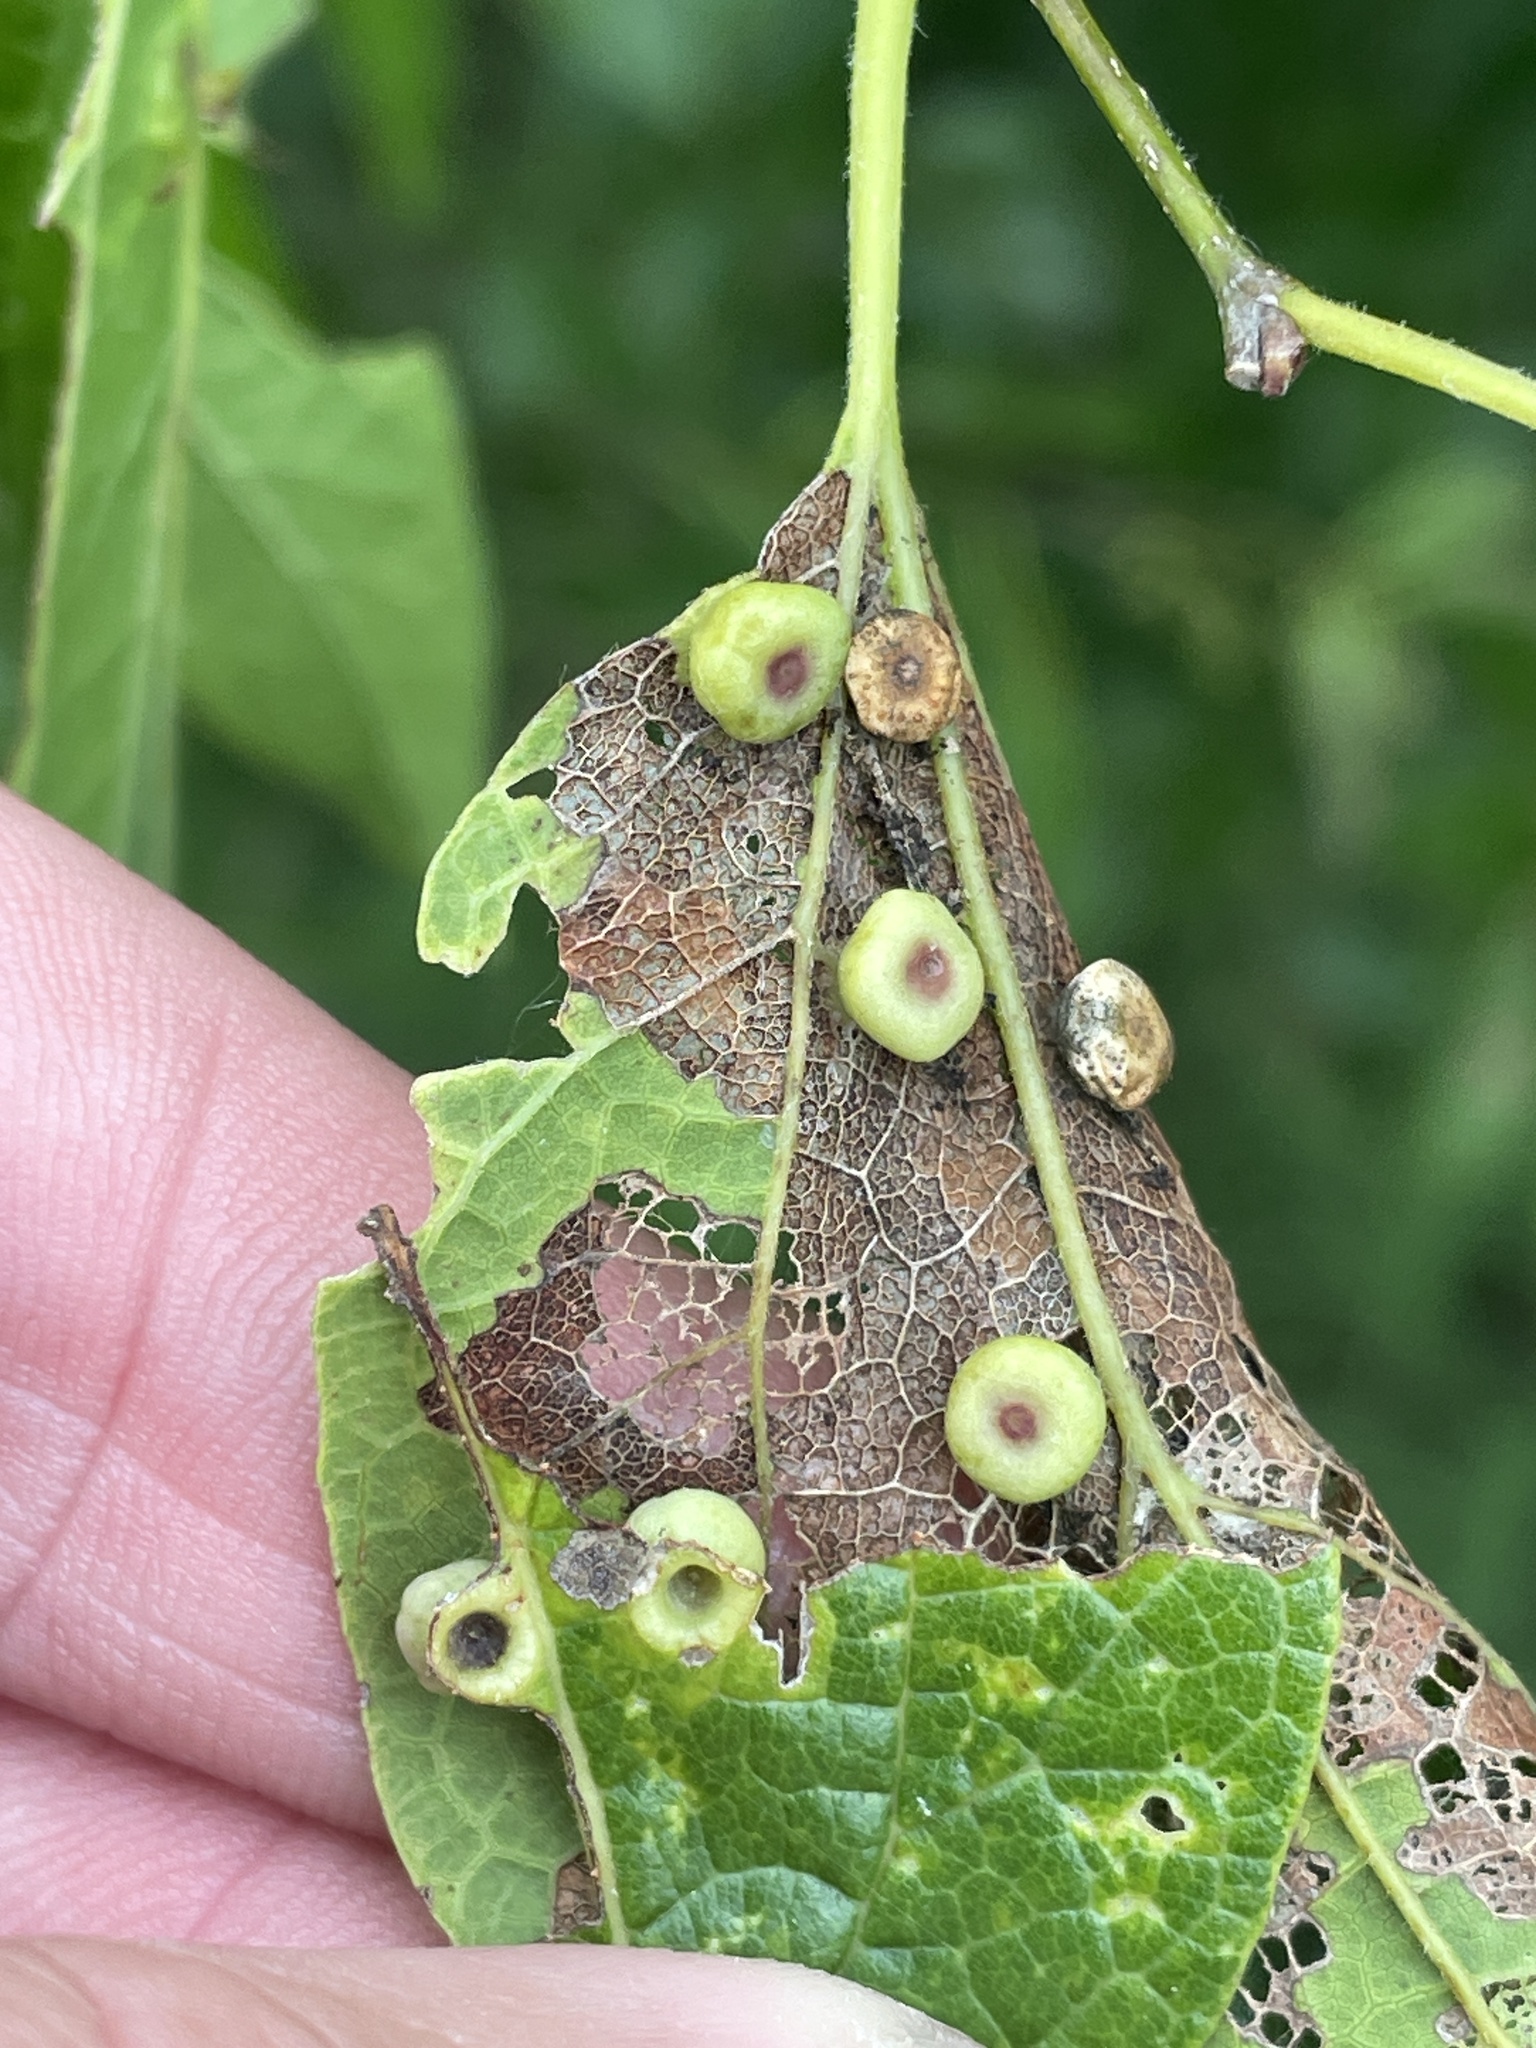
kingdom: Animalia
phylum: Arthropoda
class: Insecta
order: Hemiptera
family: Aphalaridae
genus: Pachypsylla
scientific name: Pachypsylla celtidismamma
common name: Hackberry nipplegall psyllid
